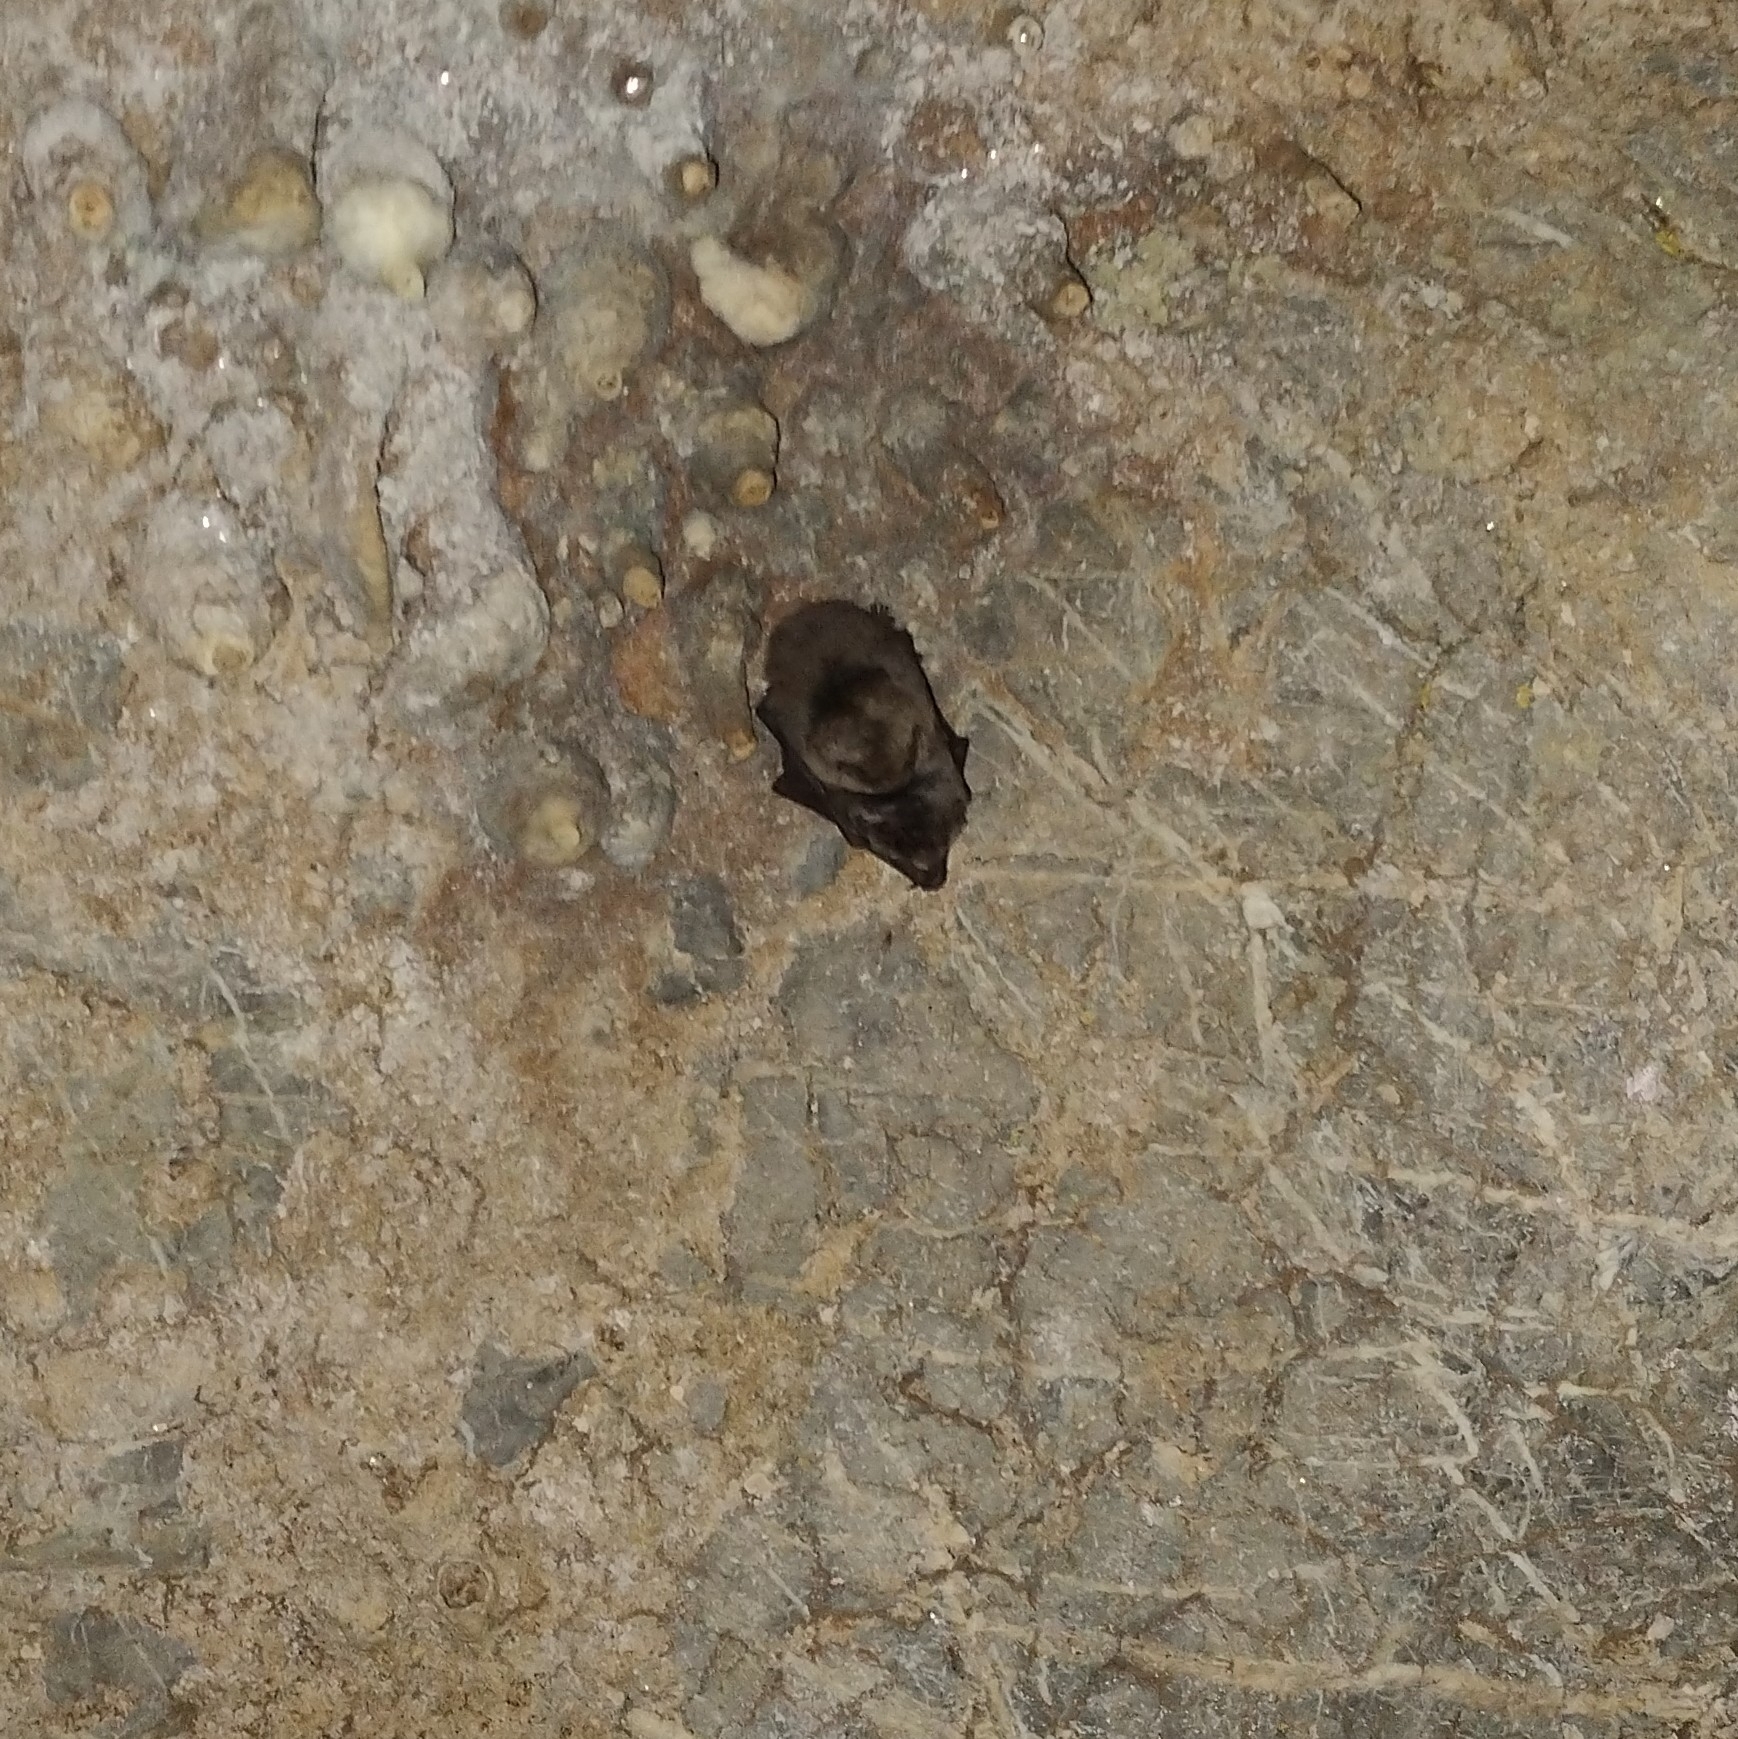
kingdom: Animalia
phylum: Chordata
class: Mammalia
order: Chiroptera
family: Miniopteridae
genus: Miniopterus
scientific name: Miniopterus schreibersii
